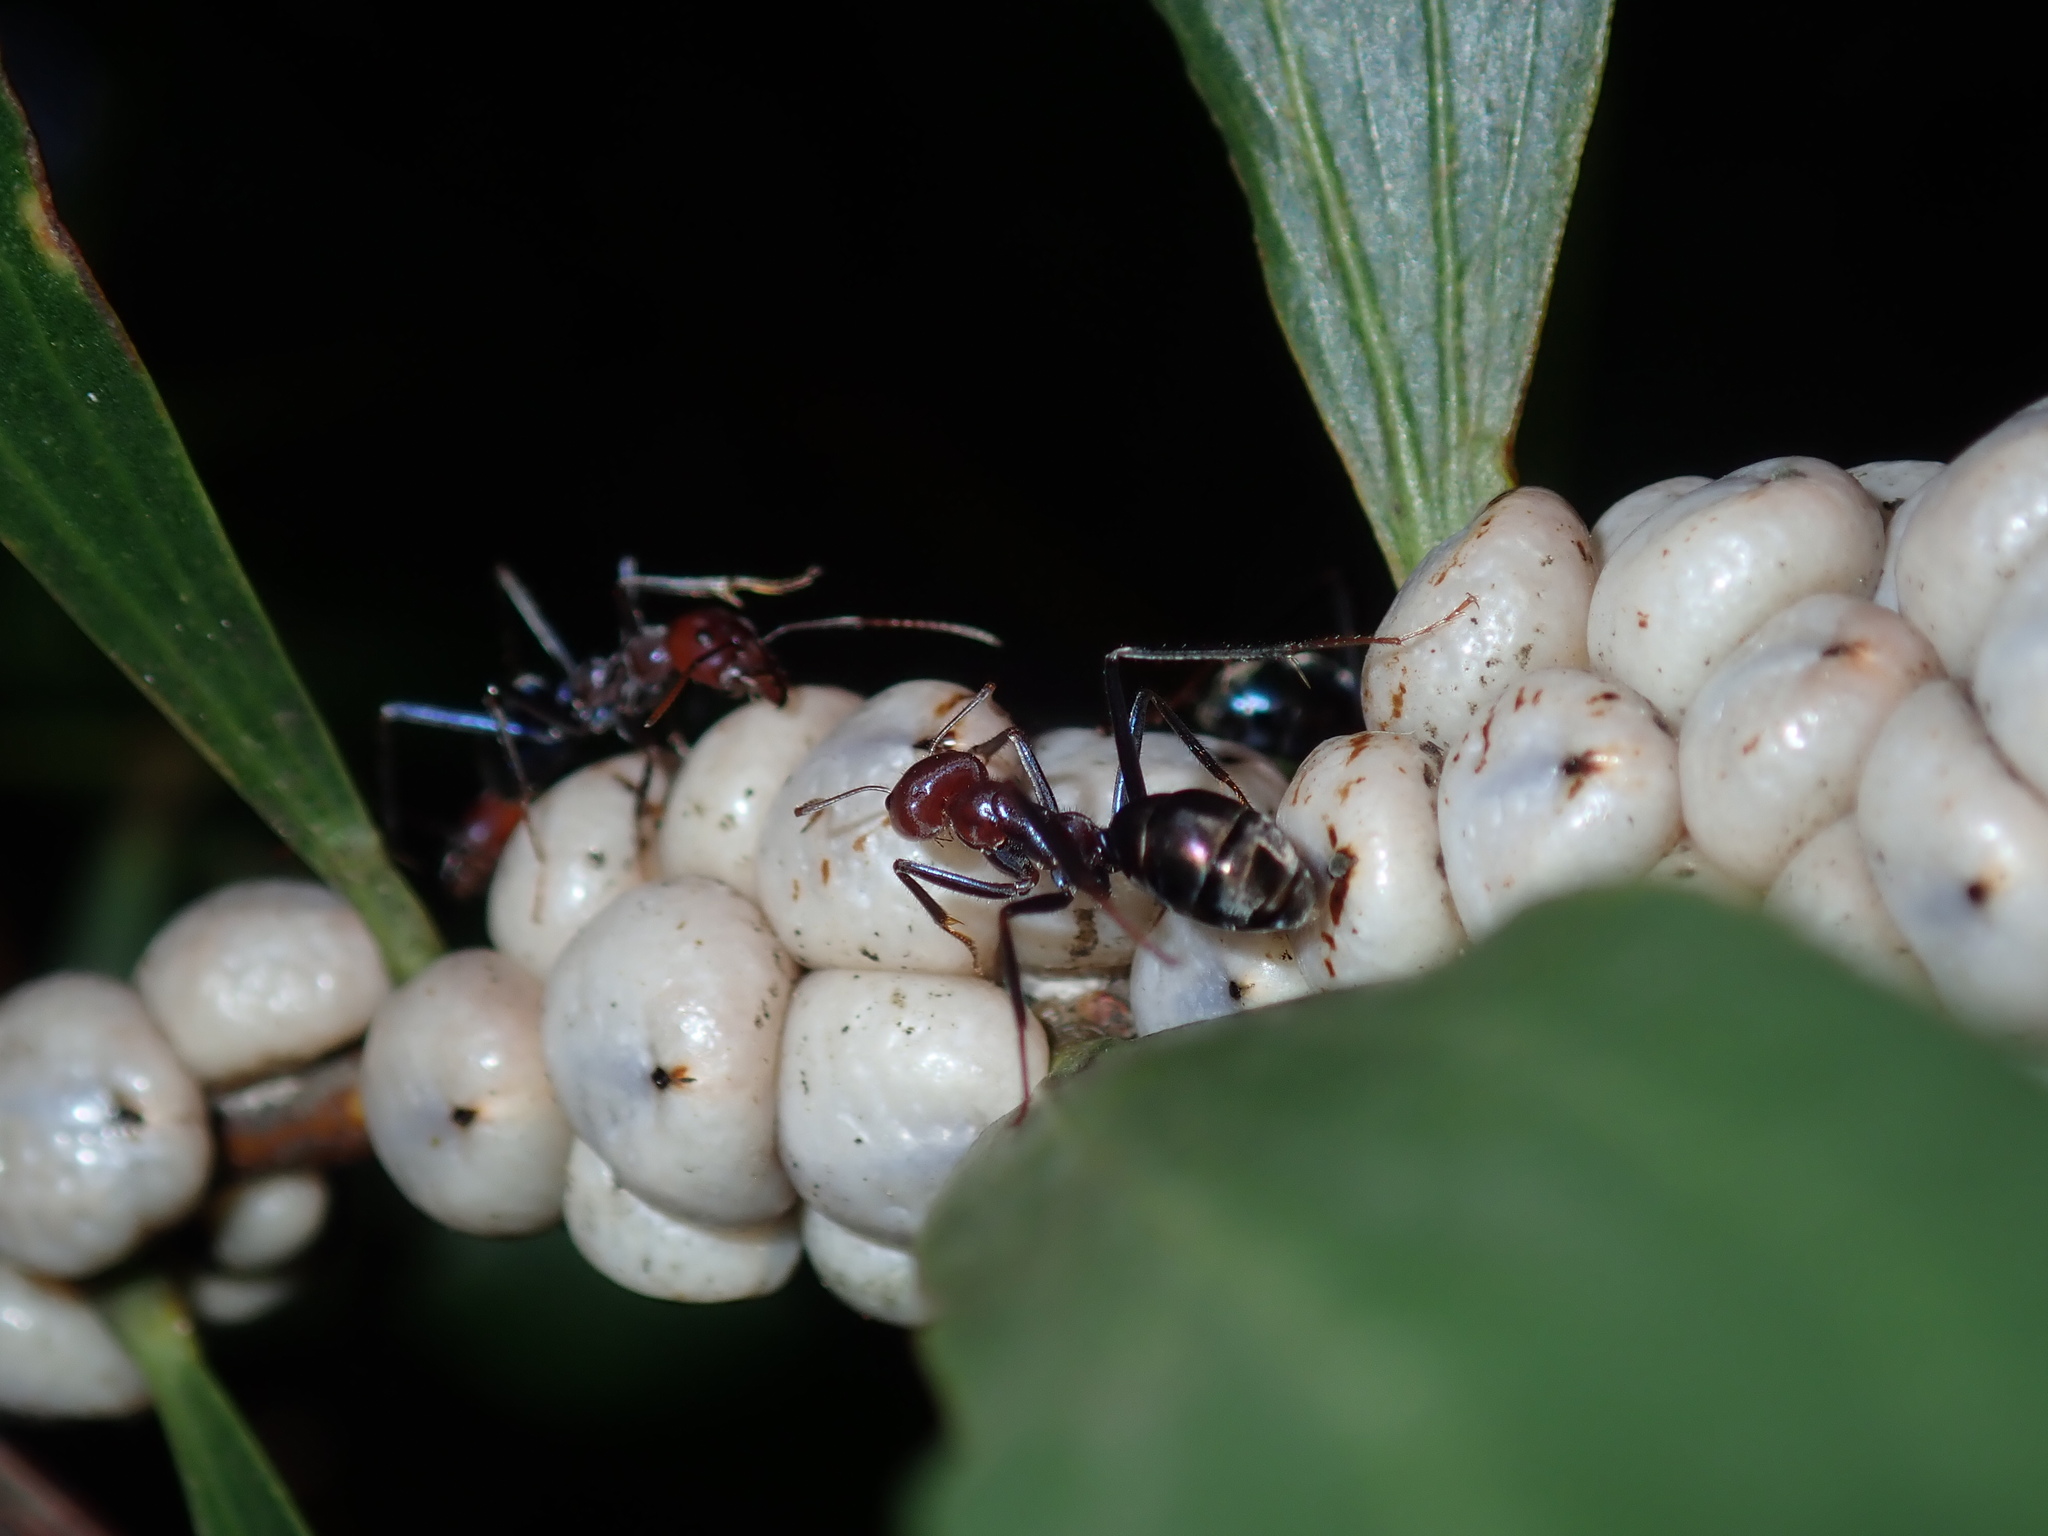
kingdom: Animalia
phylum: Arthropoda
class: Insecta
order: Hymenoptera
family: Formicidae
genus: Iridomyrmex
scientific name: Iridomyrmex purpureus
